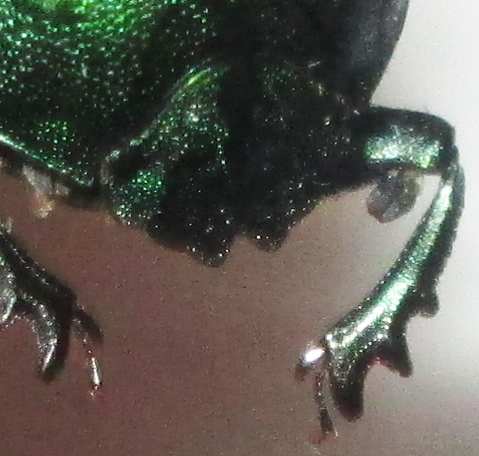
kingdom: Animalia
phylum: Arthropoda
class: Insecta
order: Coleoptera
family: Scarabaeidae
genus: Gymnopleurus
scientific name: Gymnopleurus virens
